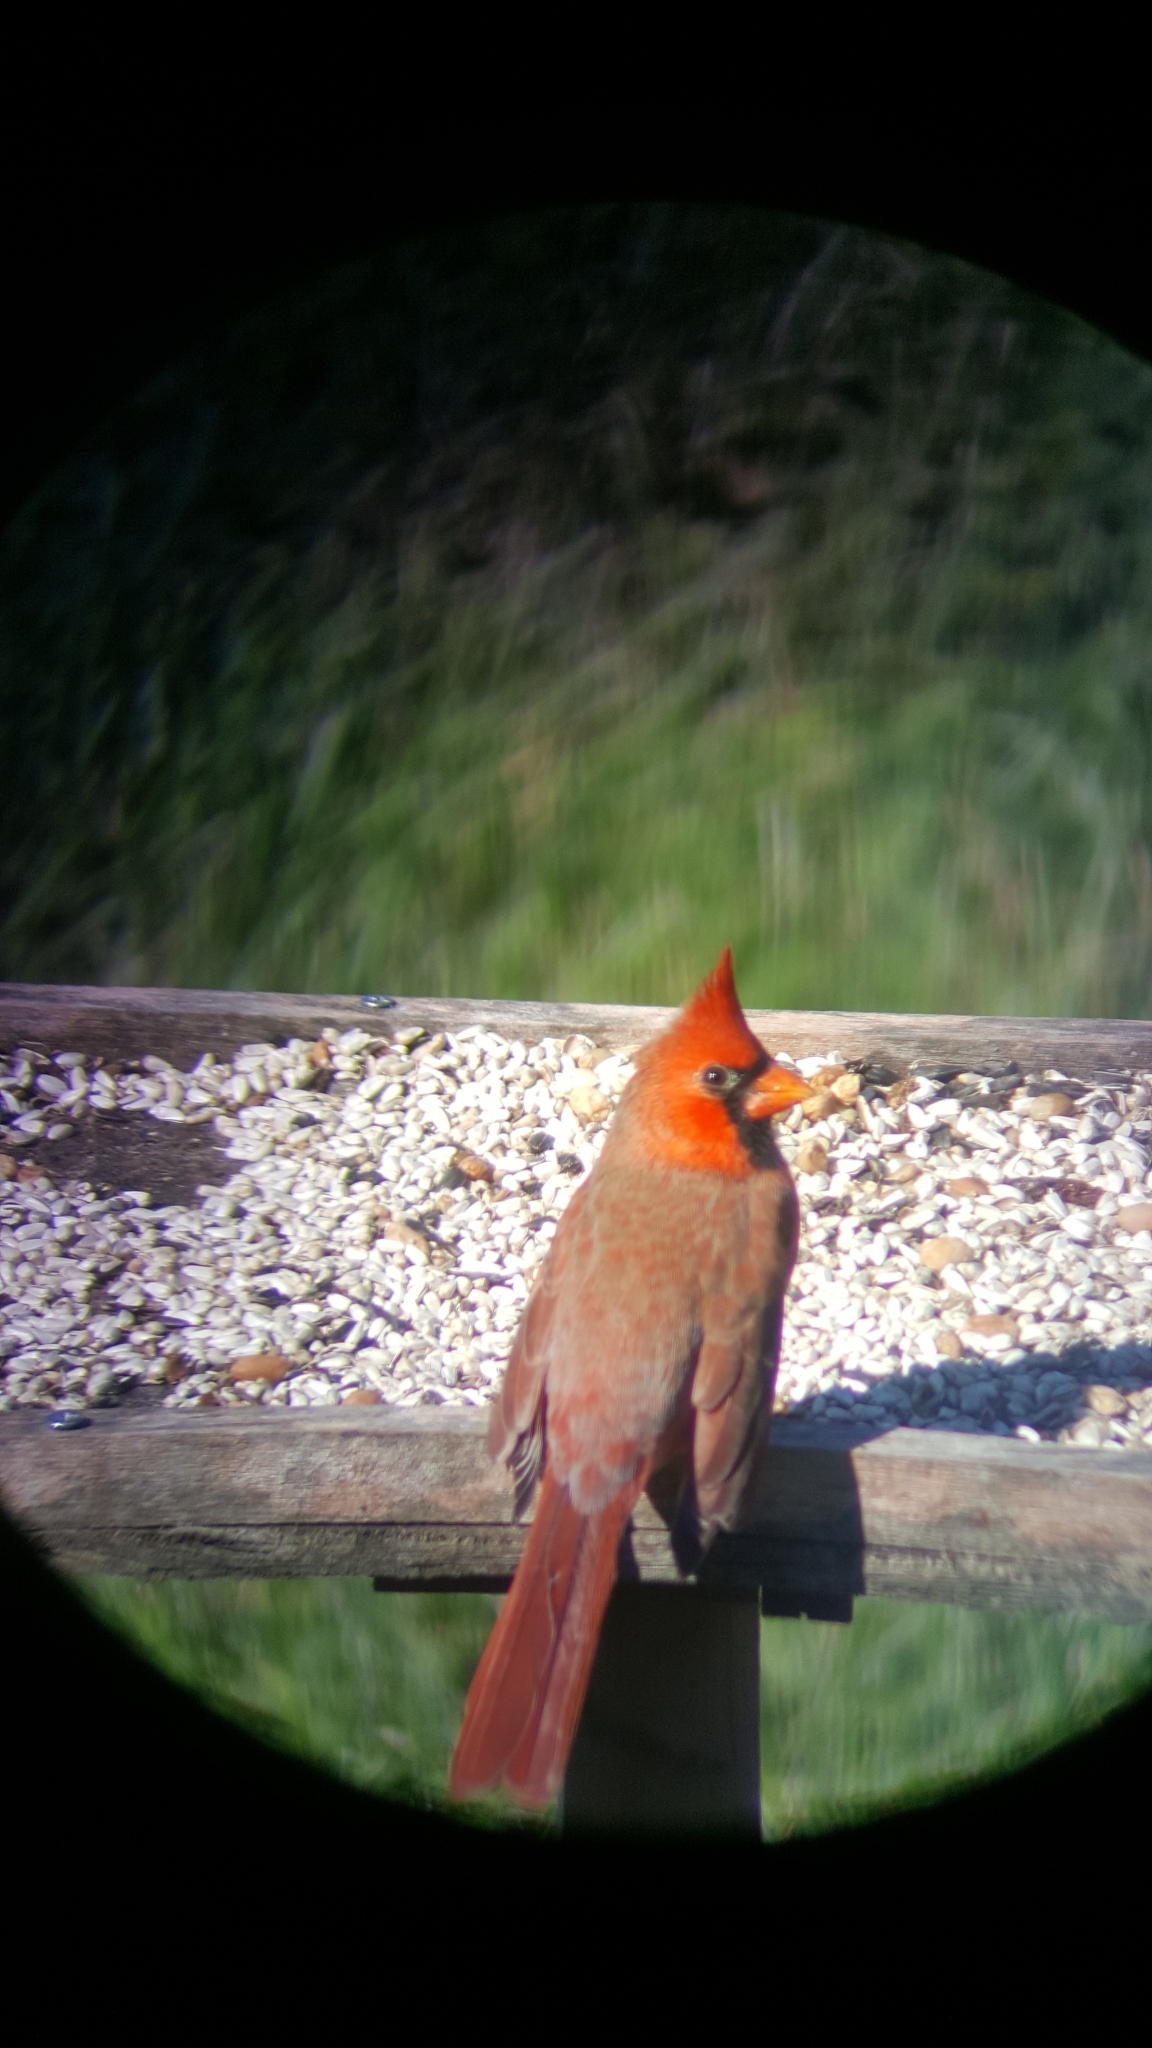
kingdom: Animalia
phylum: Chordata
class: Aves
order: Passeriformes
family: Cardinalidae
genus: Cardinalis
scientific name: Cardinalis cardinalis
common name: Northern cardinal
